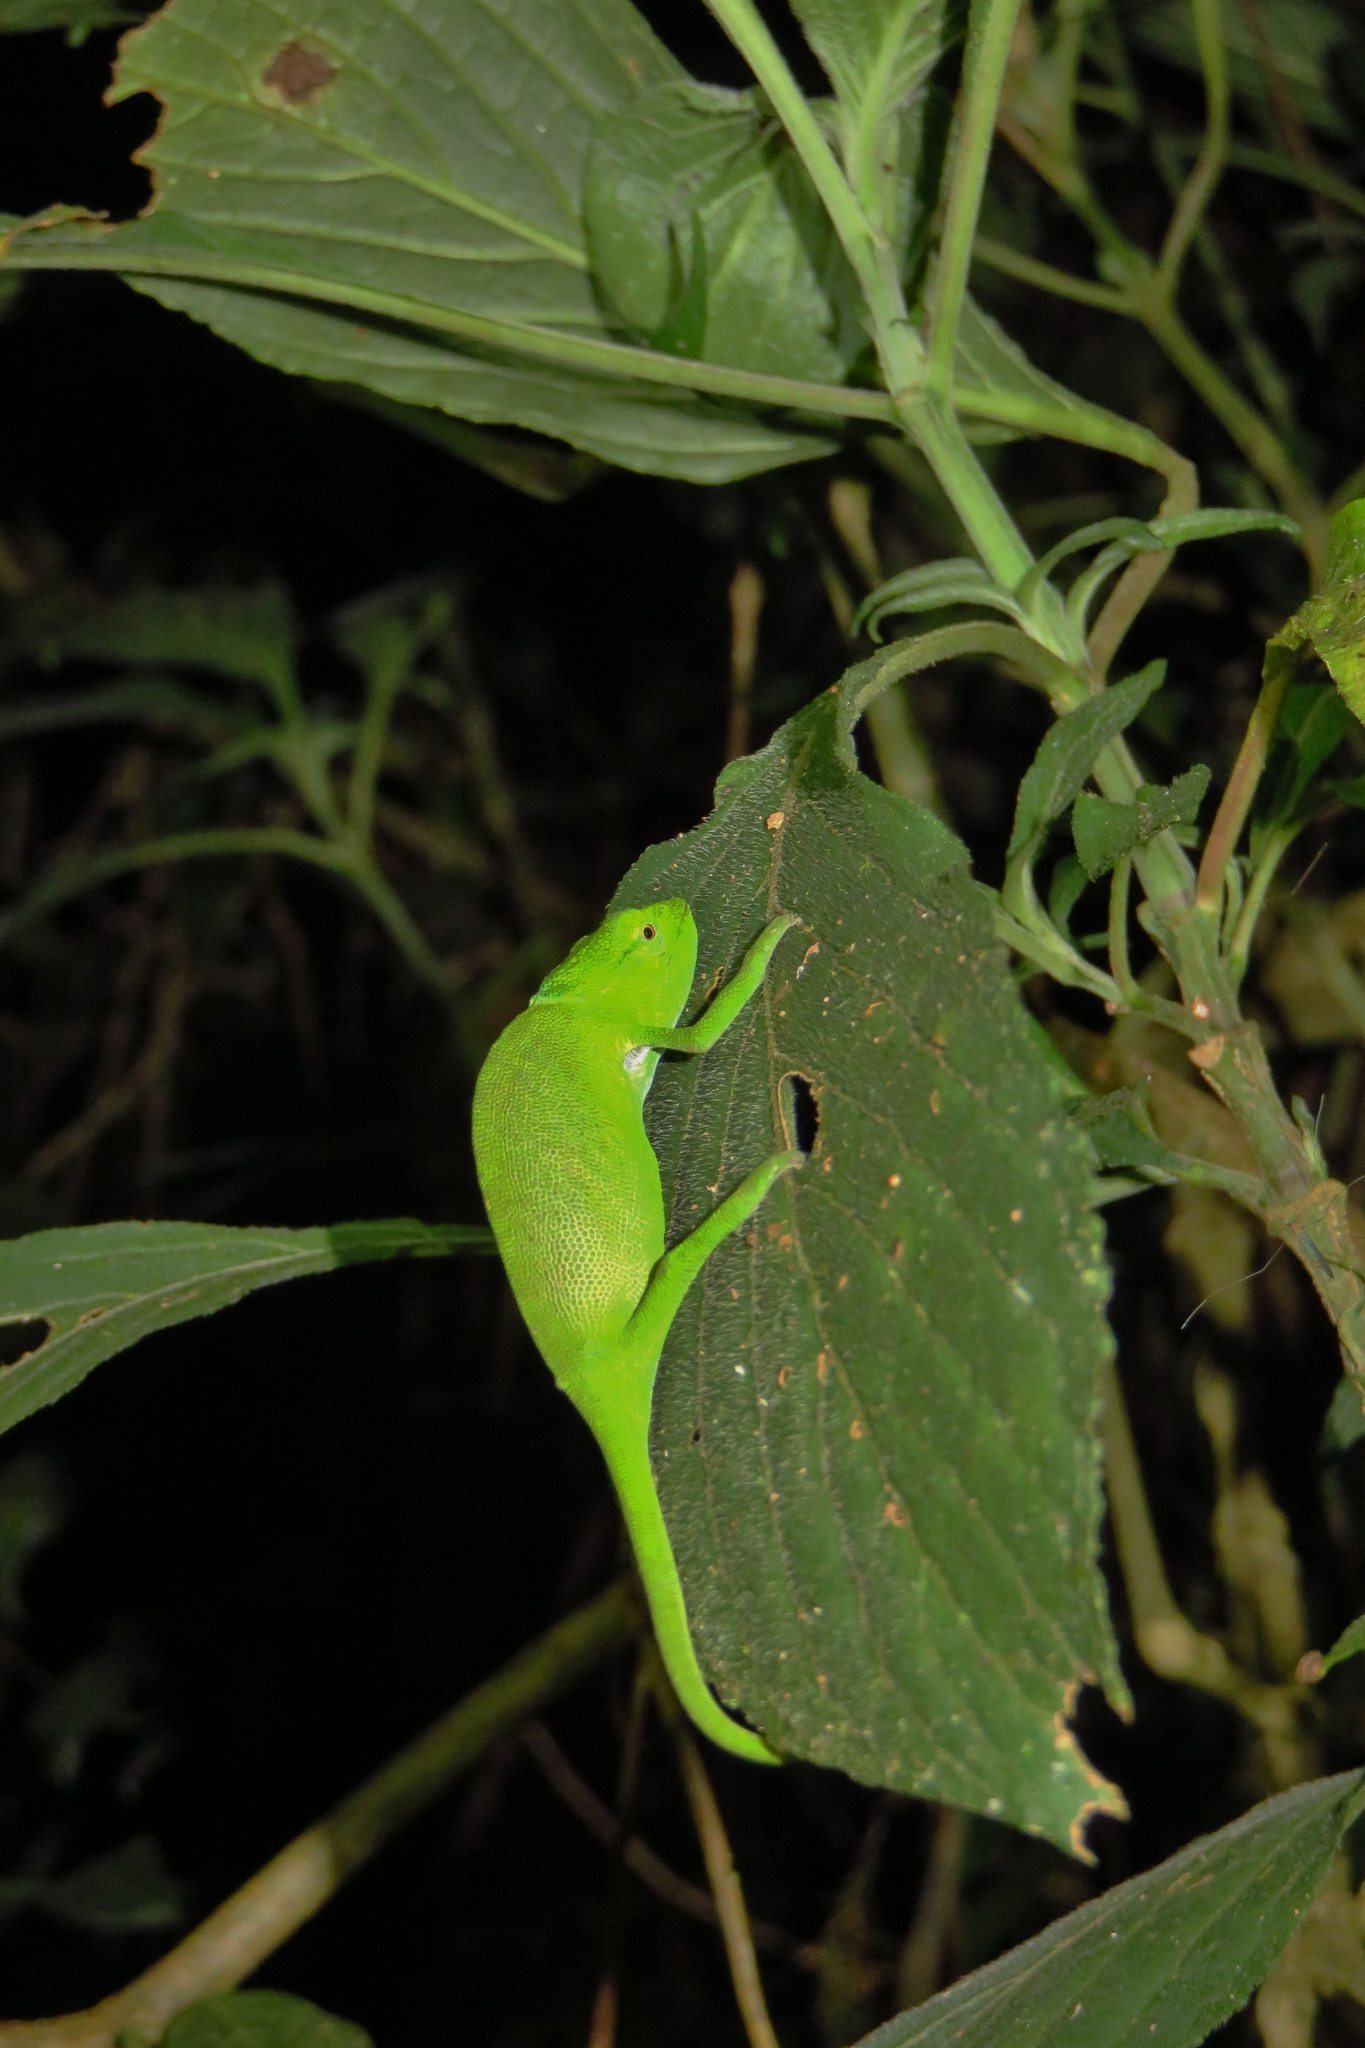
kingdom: Animalia
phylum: Chordata
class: Squamata
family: Chamaeleonidae
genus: Calumma
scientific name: Calumma glawi
